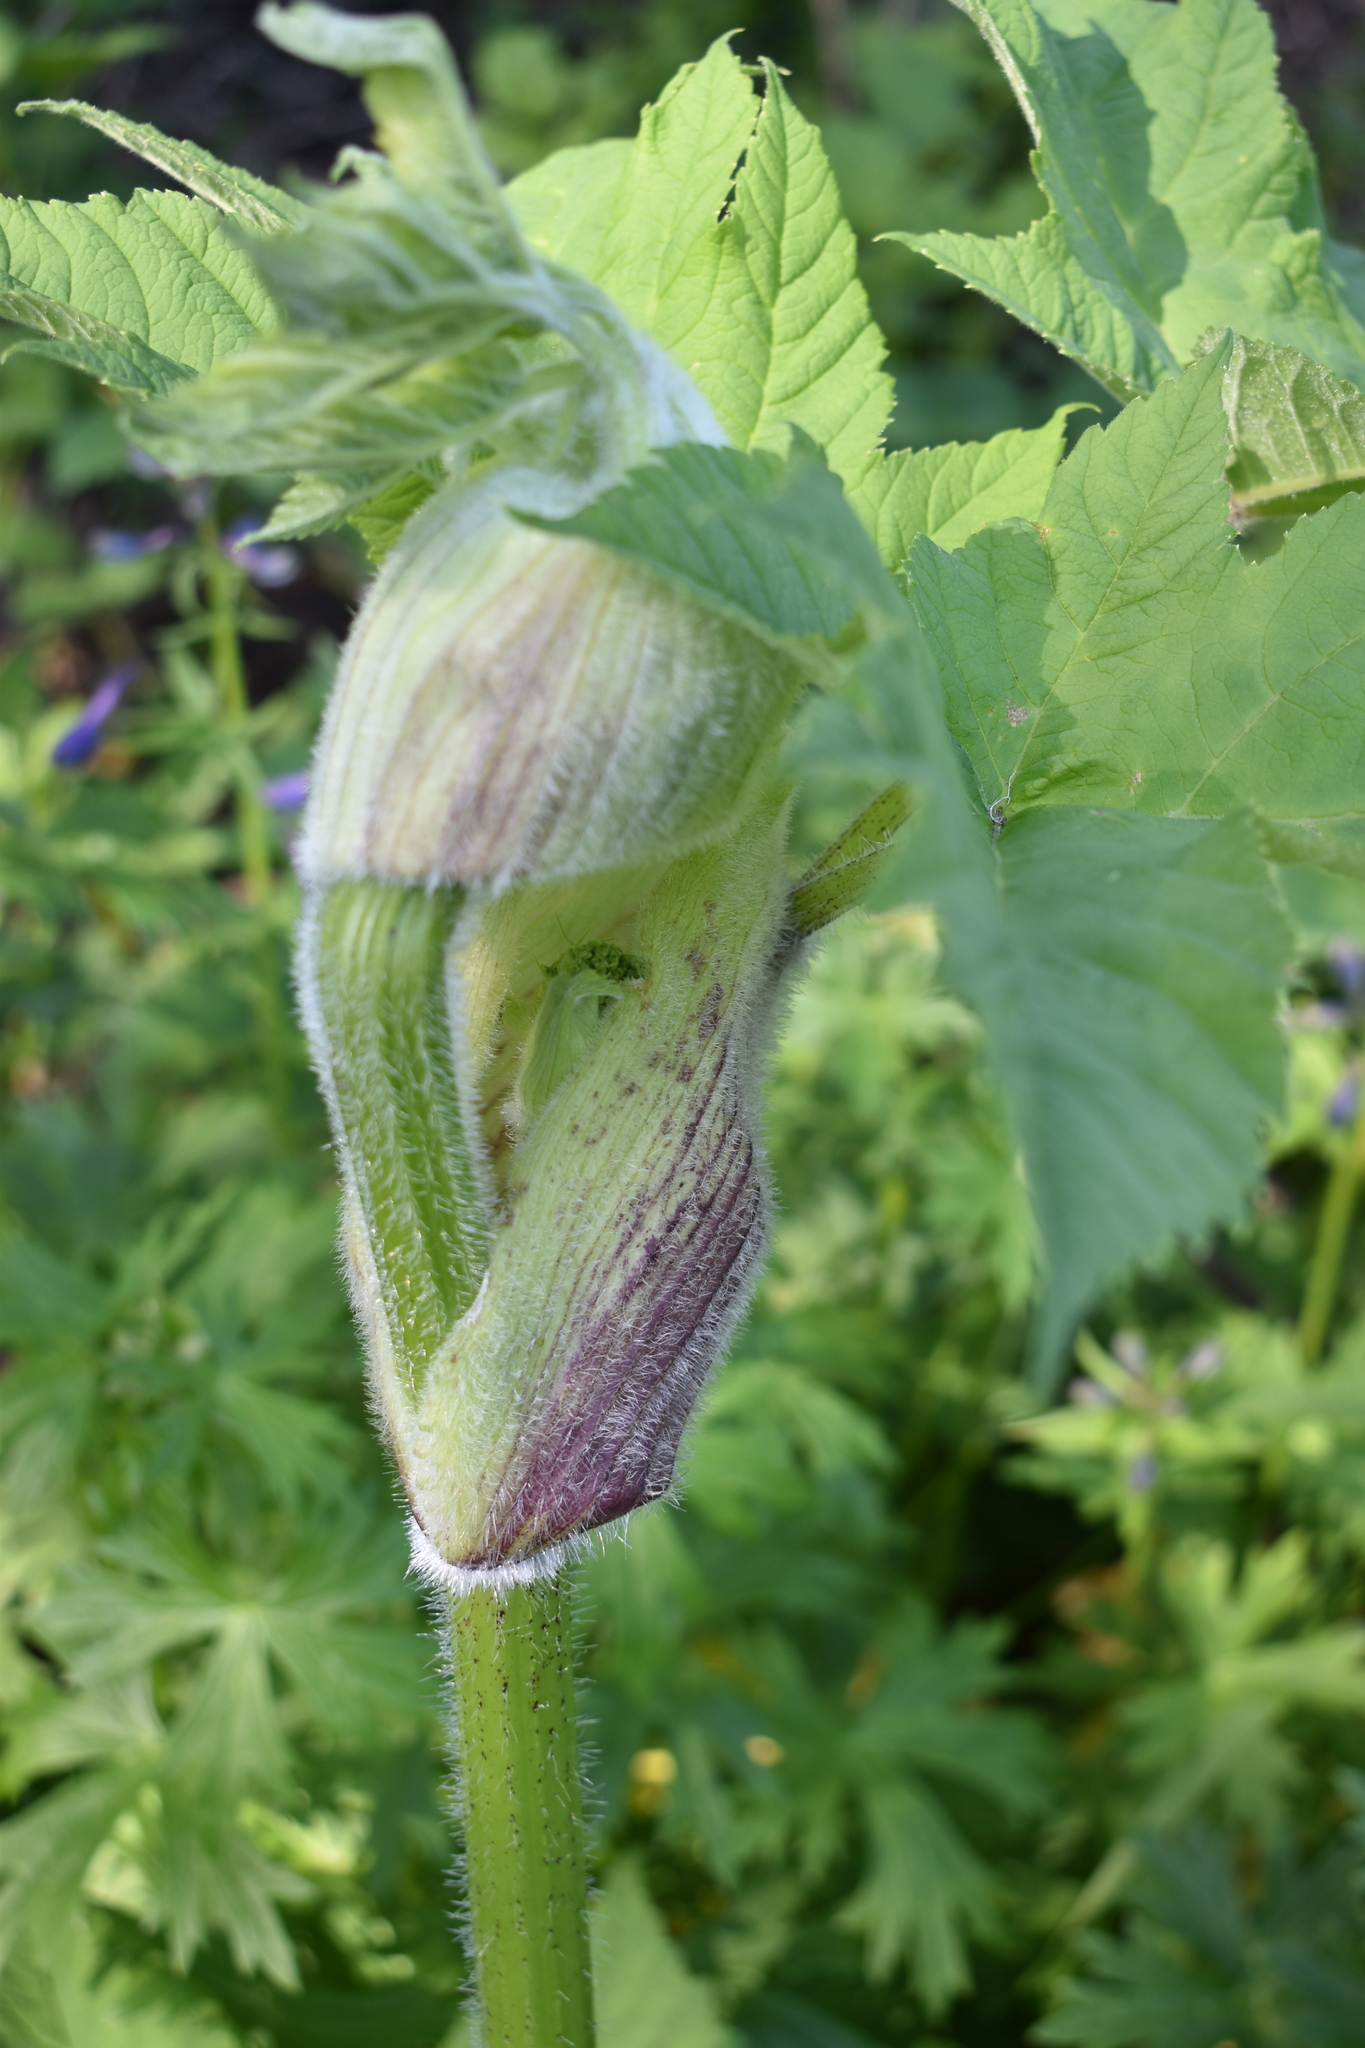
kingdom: Plantae
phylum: Tracheophyta
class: Magnoliopsida
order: Apiales
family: Apiaceae
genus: Heracleum
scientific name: Heracleum maximum
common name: American cow parsnip
